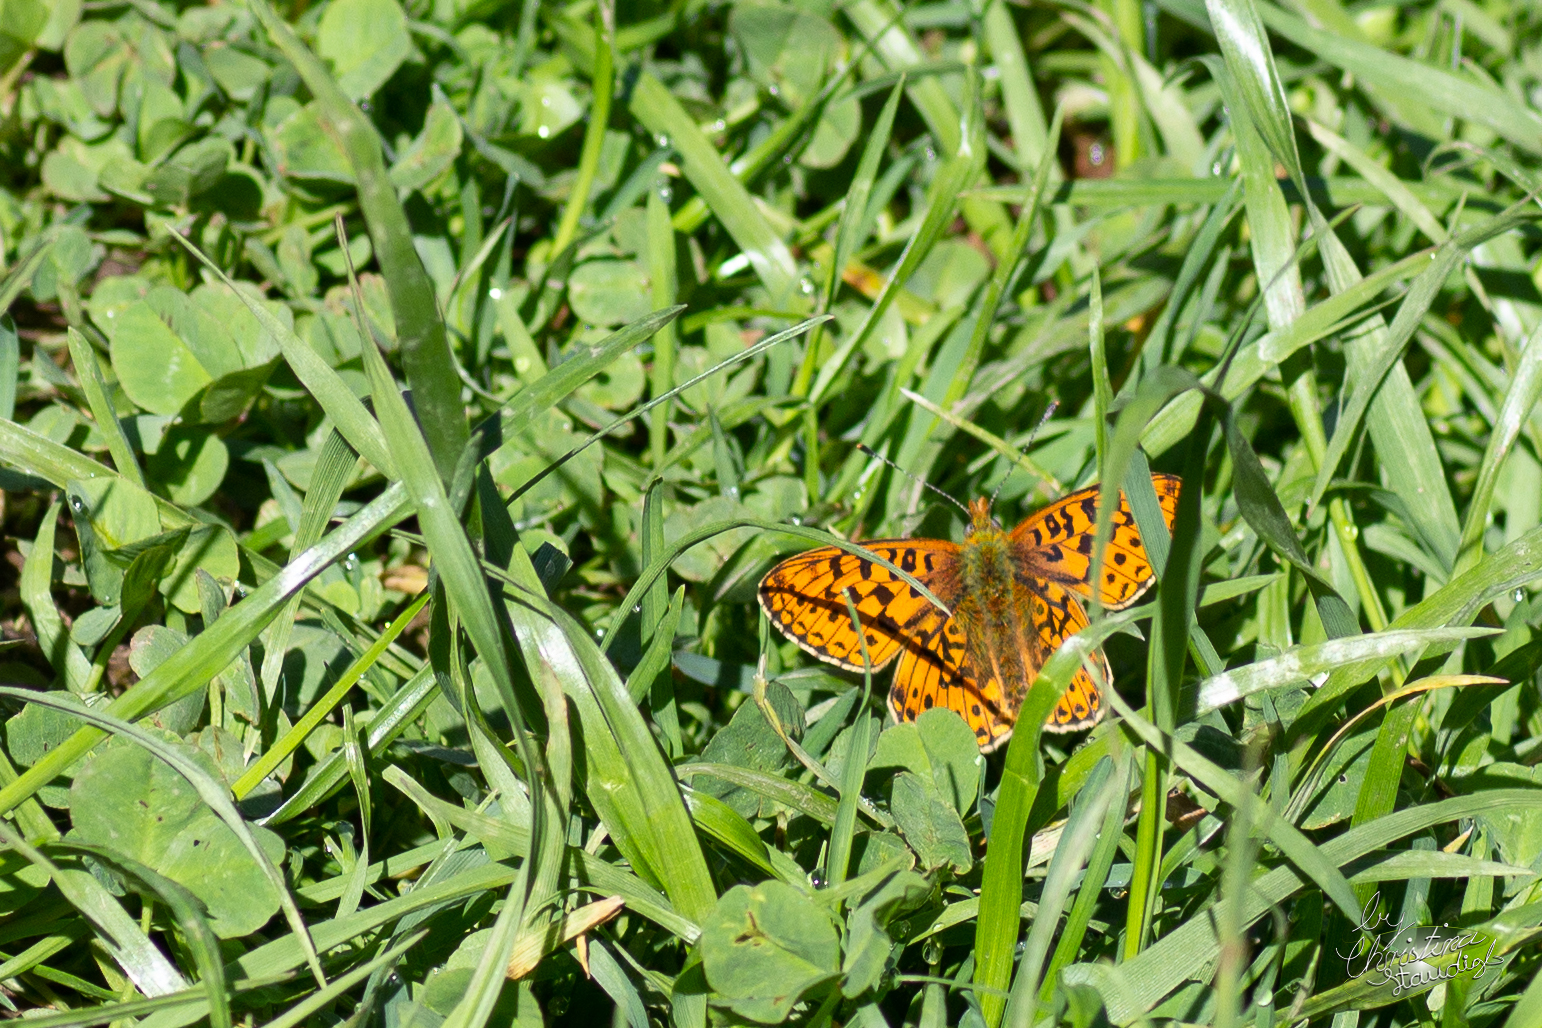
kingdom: Animalia
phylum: Arthropoda
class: Insecta
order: Lepidoptera
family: Nymphalidae
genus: Clossiana
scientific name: Clossiana euphrosyne
